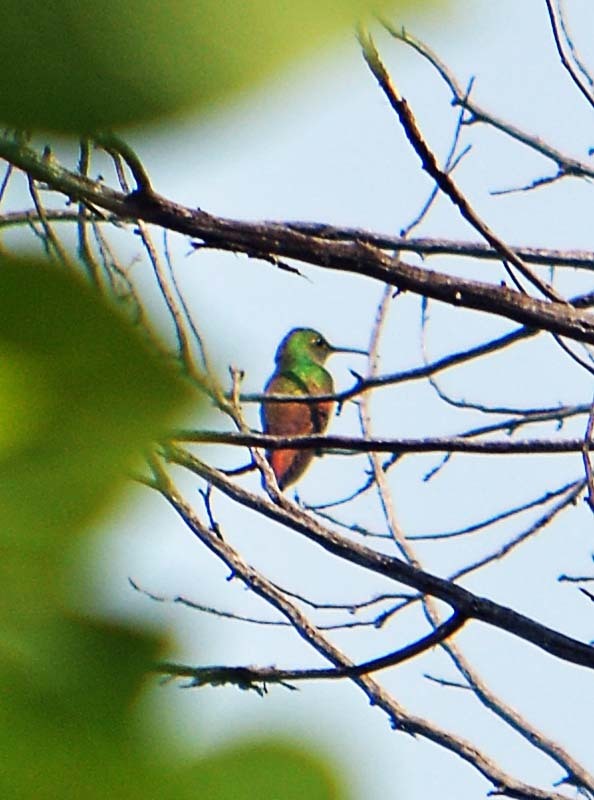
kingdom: Animalia
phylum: Chordata
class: Aves
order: Apodiformes
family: Trochilidae
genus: Saucerottia
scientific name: Saucerottia beryllina
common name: Berylline hummingbird
